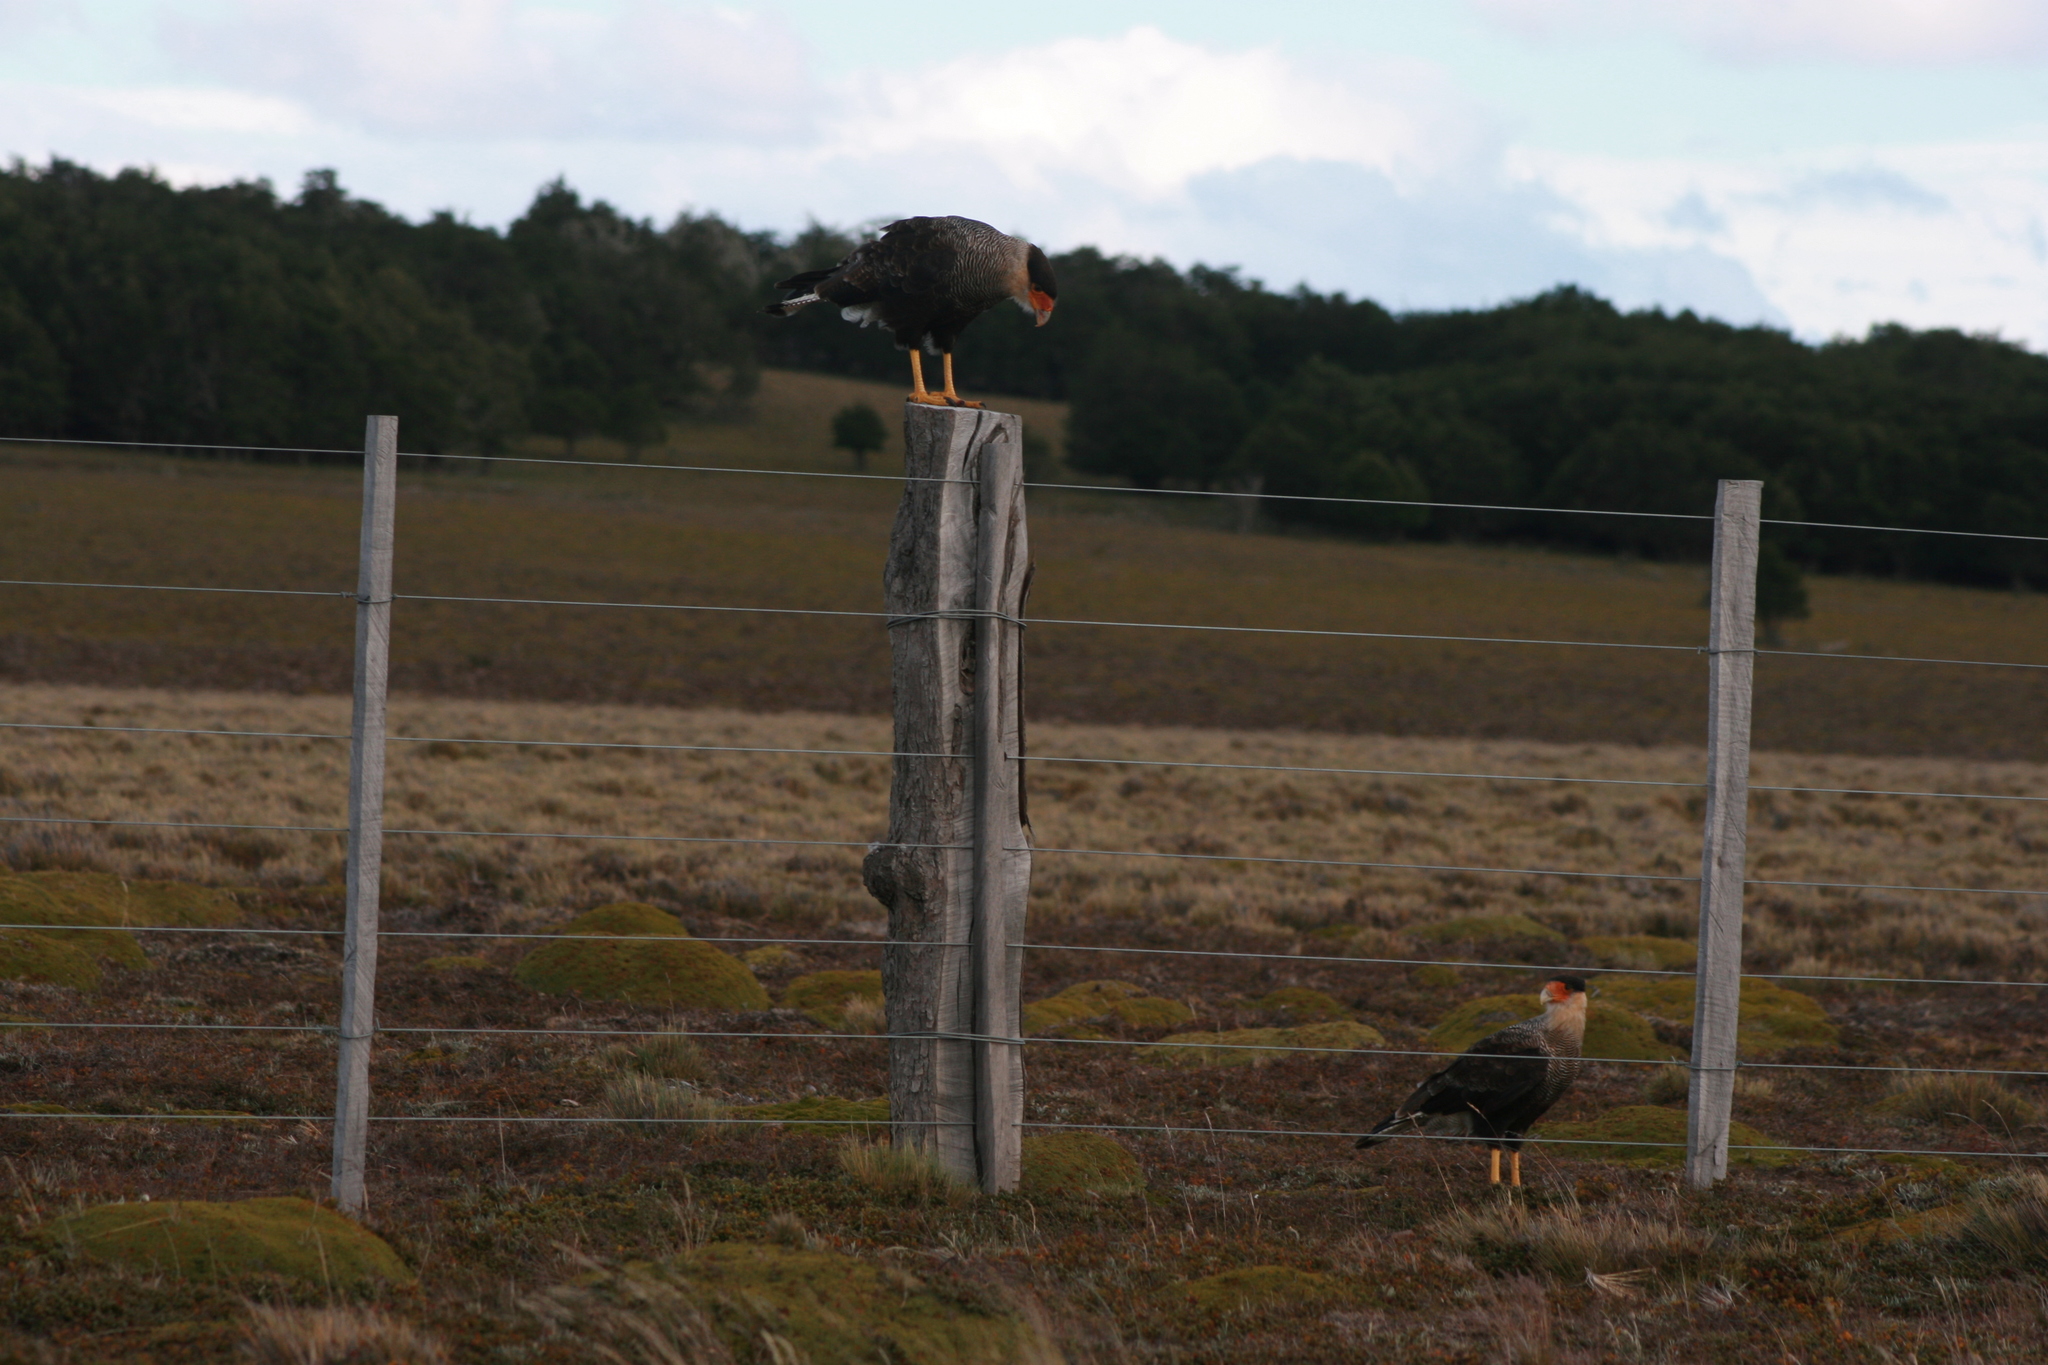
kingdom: Animalia
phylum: Chordata
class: Aves
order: Falconiformes
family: Falconidae
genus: Caracara
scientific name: Caracara plancus
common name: Southern caracara
